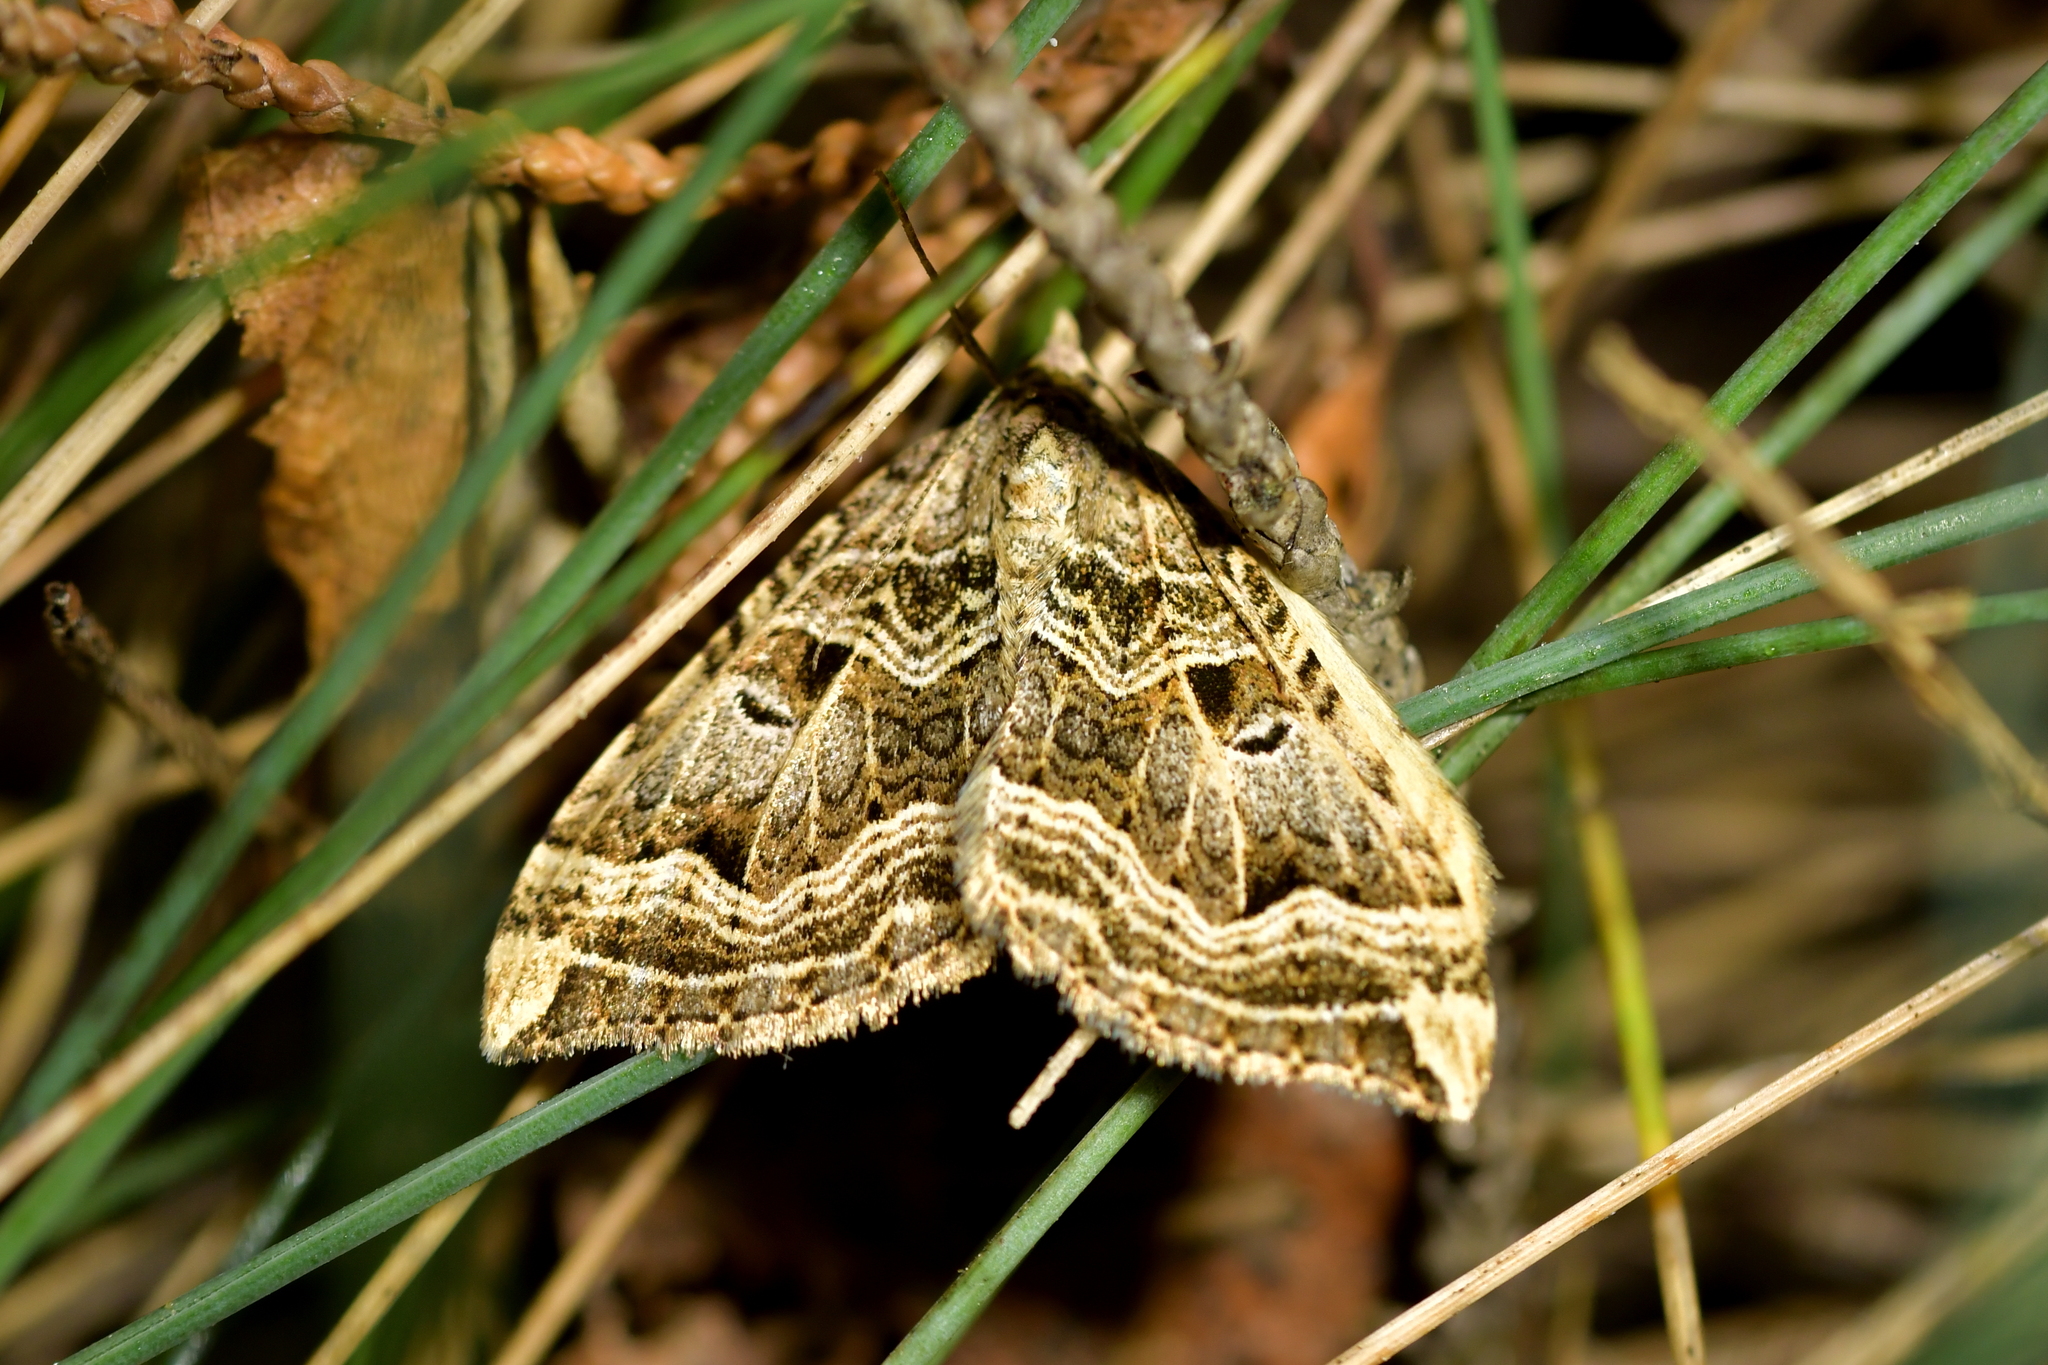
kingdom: Animalia
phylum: Arthropoda
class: Insecta
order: Lepidoptera
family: Geometridae
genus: Xanthorhoe
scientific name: Xanthorhoe semifissata
